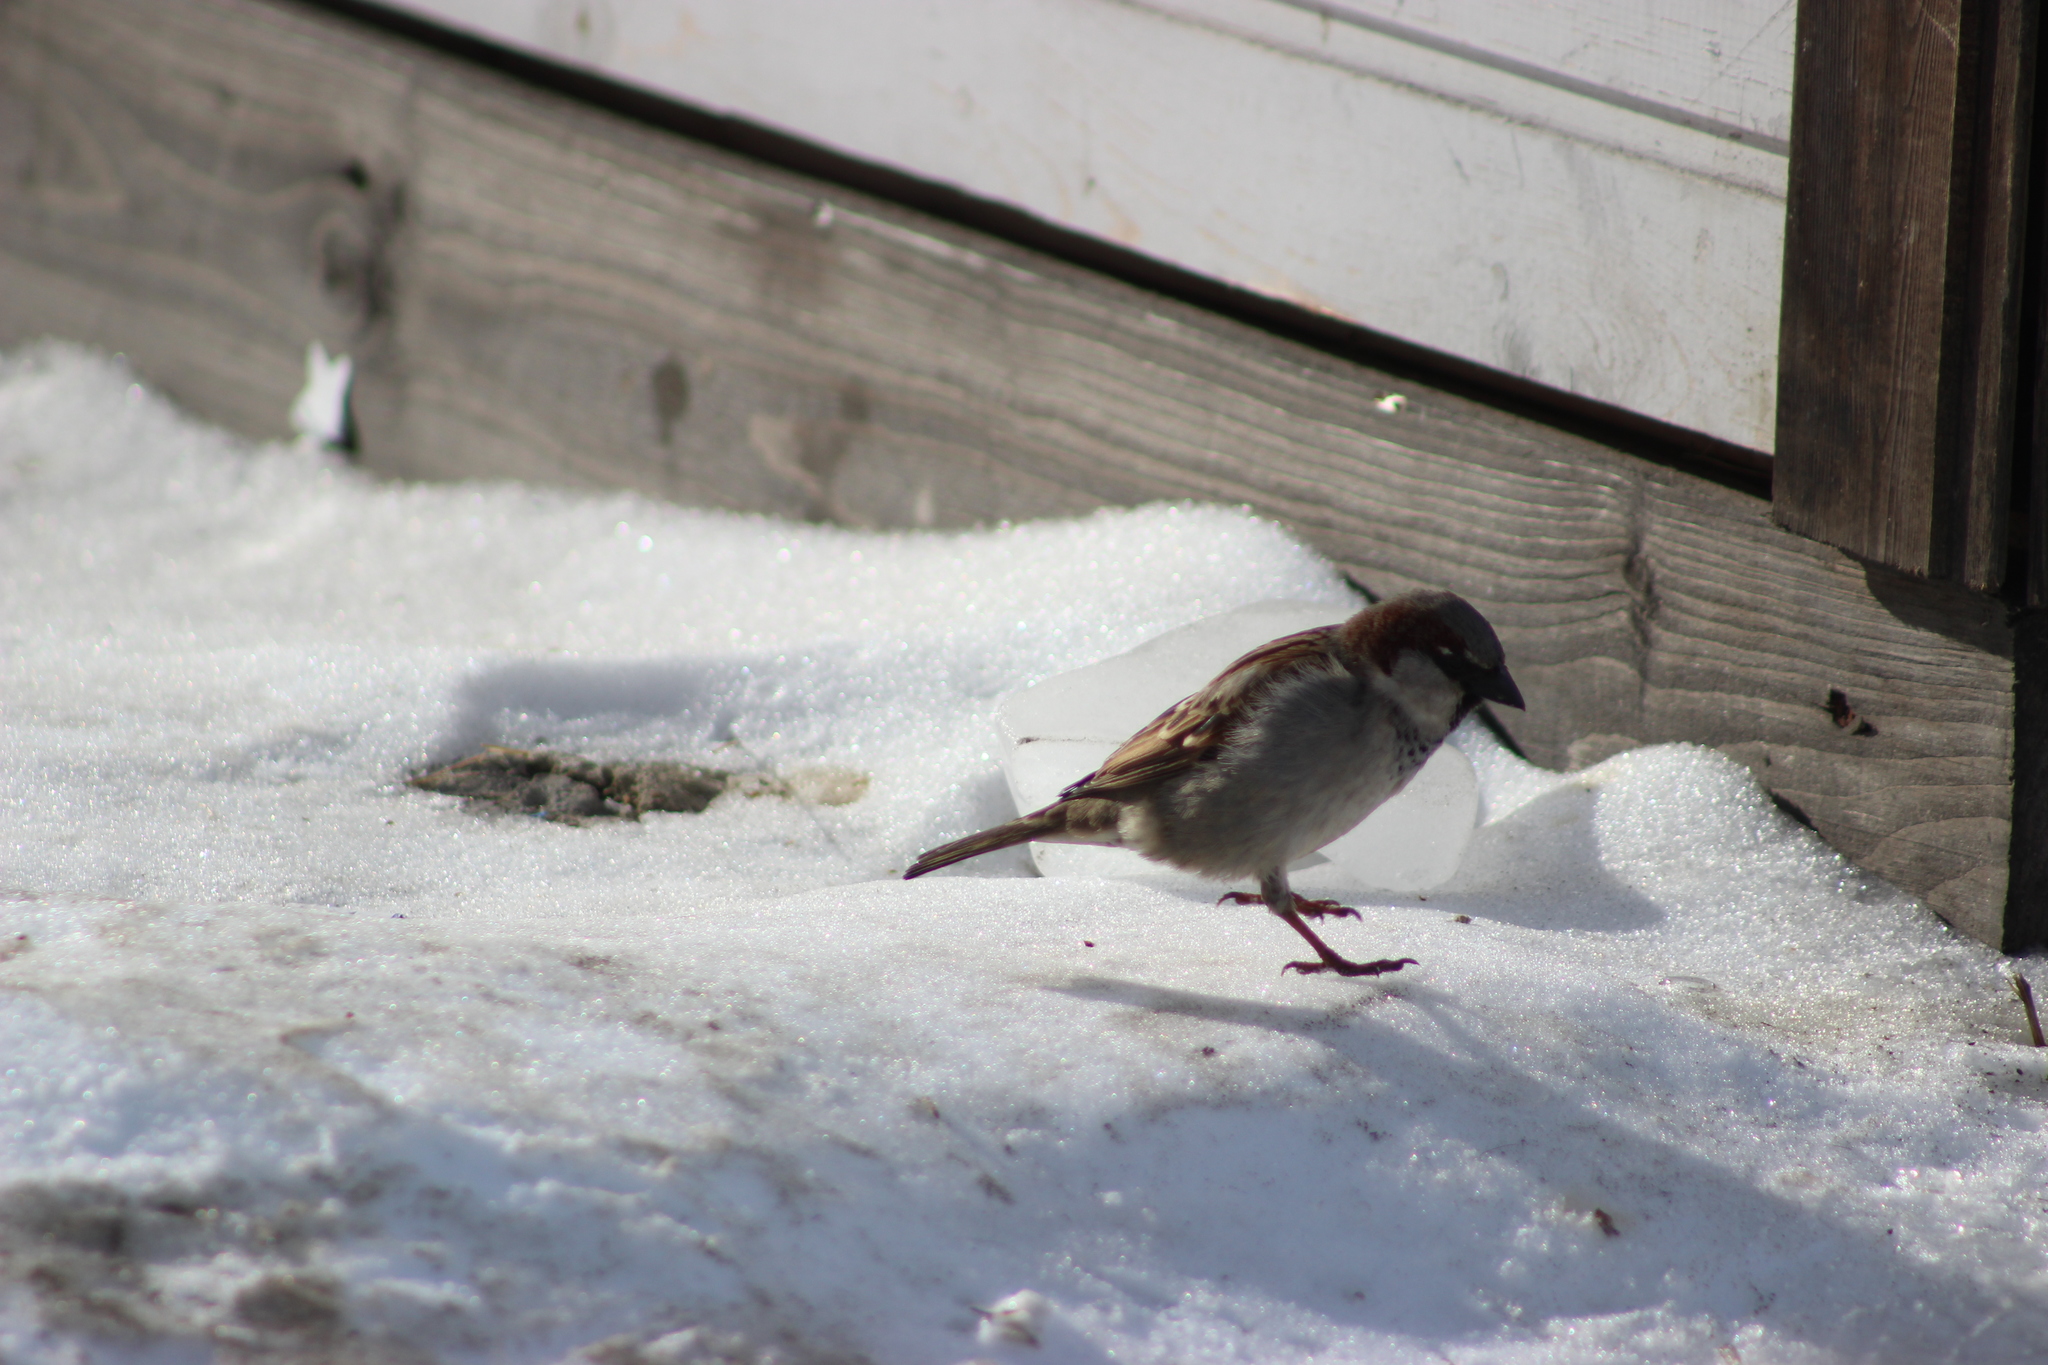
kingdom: Animalia
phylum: Chordata
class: Aves
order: Passeriformes
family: Passeridae
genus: Passer
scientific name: Passer domesticus
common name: House sparrow
